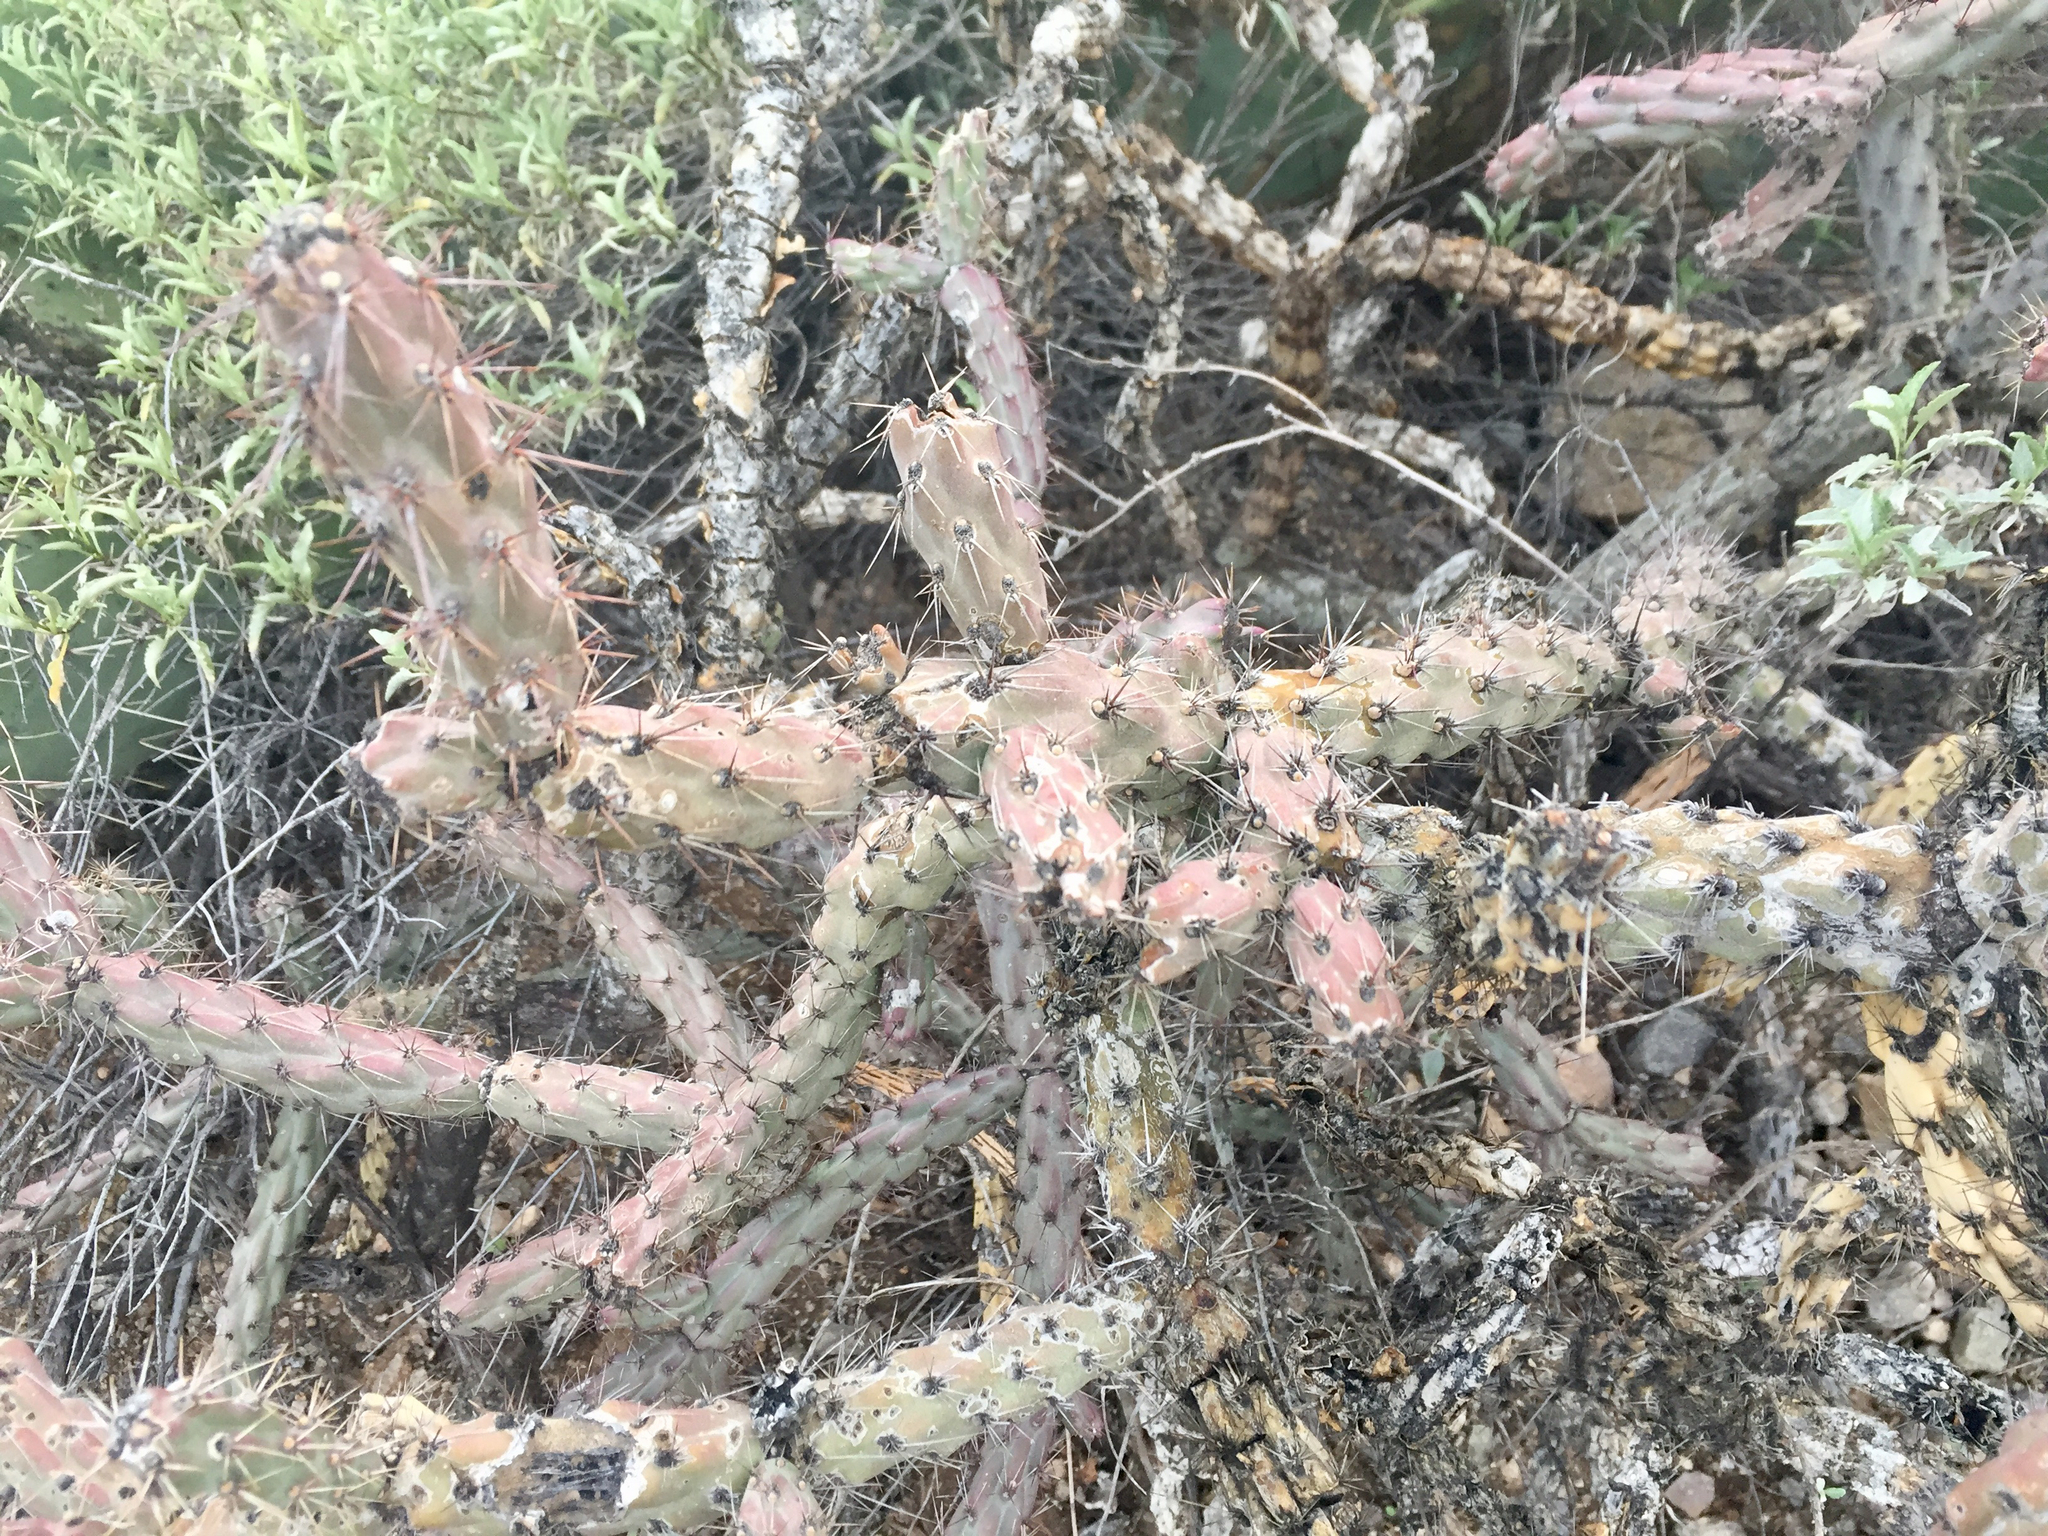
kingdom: Plantae
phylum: Tracheophyta
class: Magnoliopsida
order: Caryophyllales
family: Cactaceae
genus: Cylindropuntia
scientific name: Cylindropuntia thurberi
